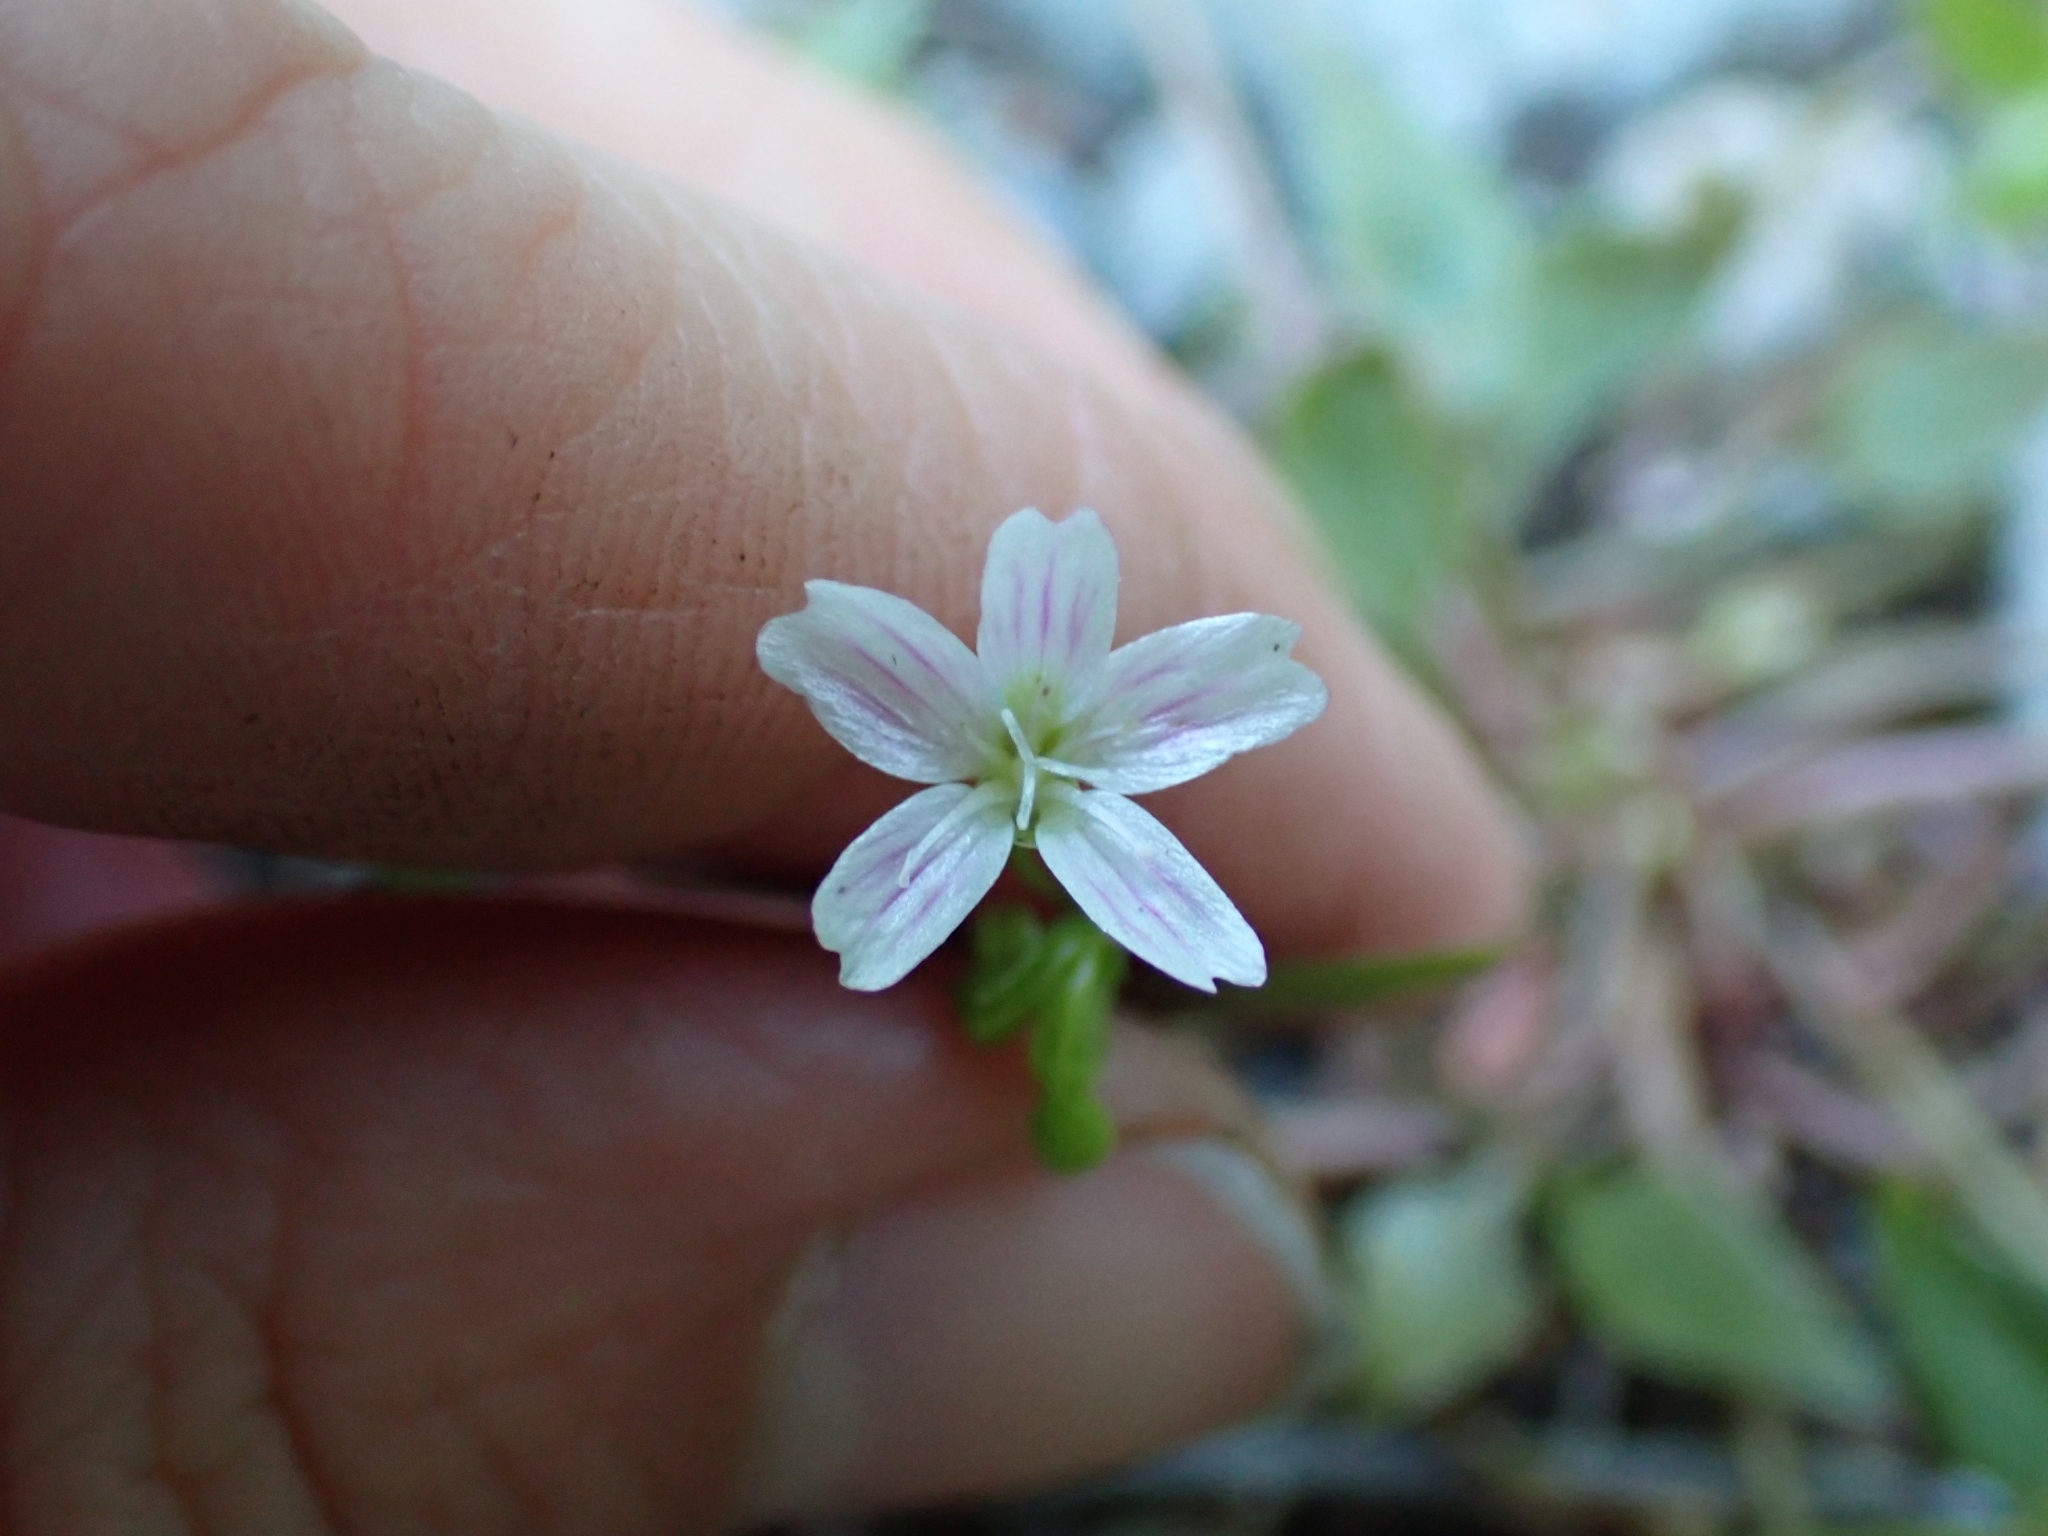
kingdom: Plantae
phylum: Tracheophyta
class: Magnoliopsida
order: Caryophyllales
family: Montiaceae
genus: Claytonia
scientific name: Claytonia sibirica
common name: Pink purslane
